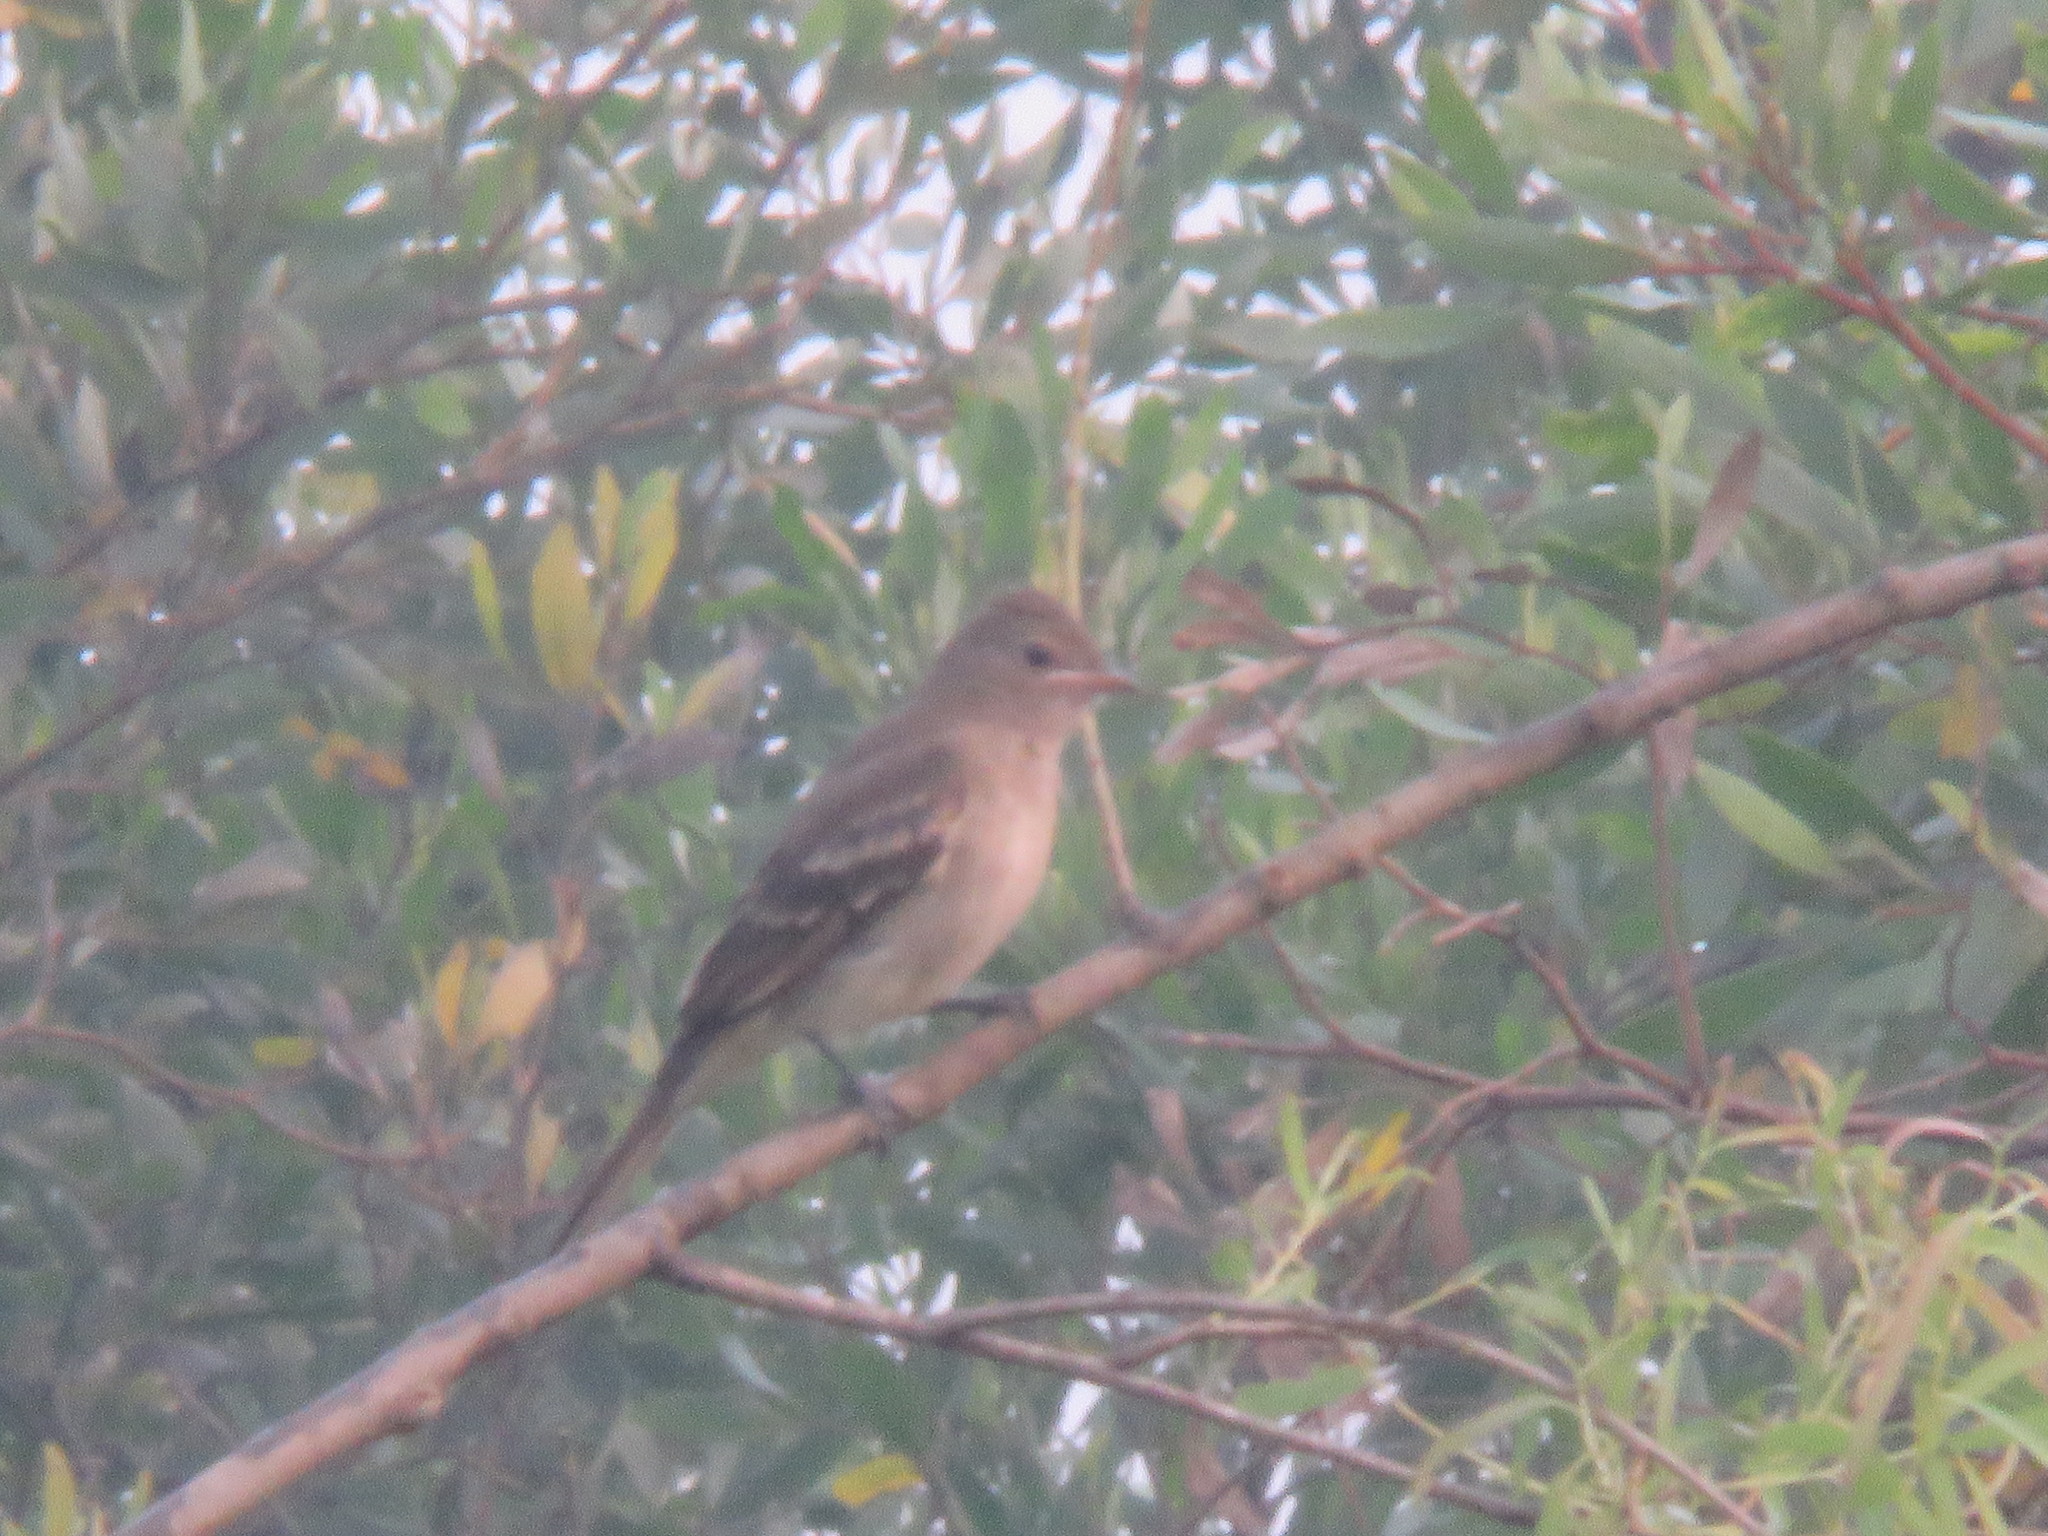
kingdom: Animalia
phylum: Chordata
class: Aves
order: Passeriformes
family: Tyrannidae
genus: Elaenia
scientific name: Elaenia pelzelni
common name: Brownish elaenia
